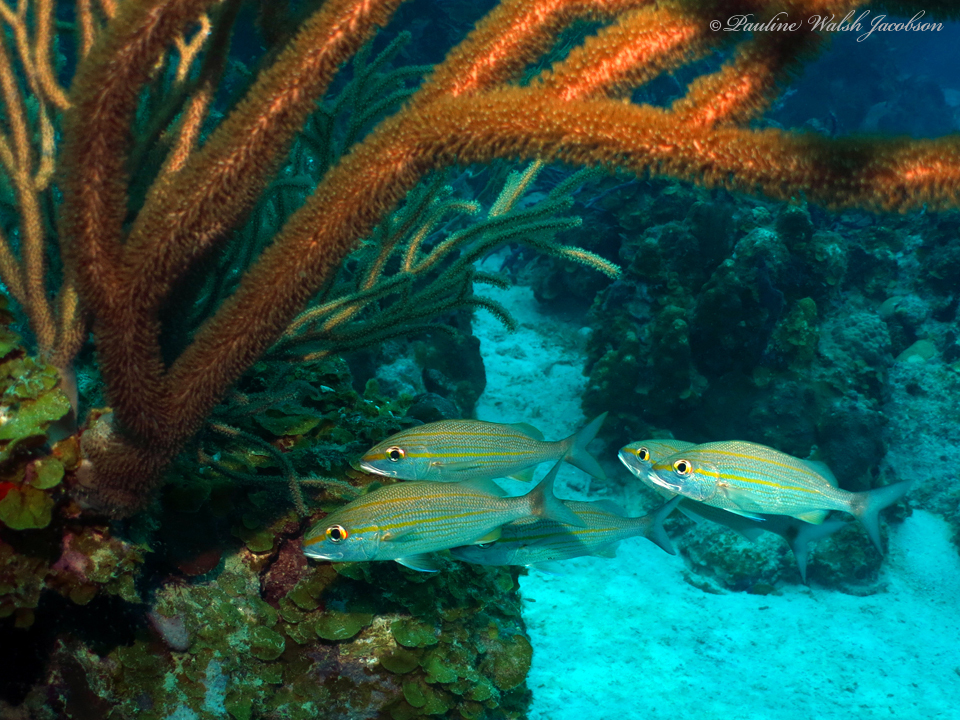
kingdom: Animalia
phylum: Chordata
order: Perciformes
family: Haemulidae
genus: Haemulon
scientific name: Haemulon aurolineatum
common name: Tomtate
